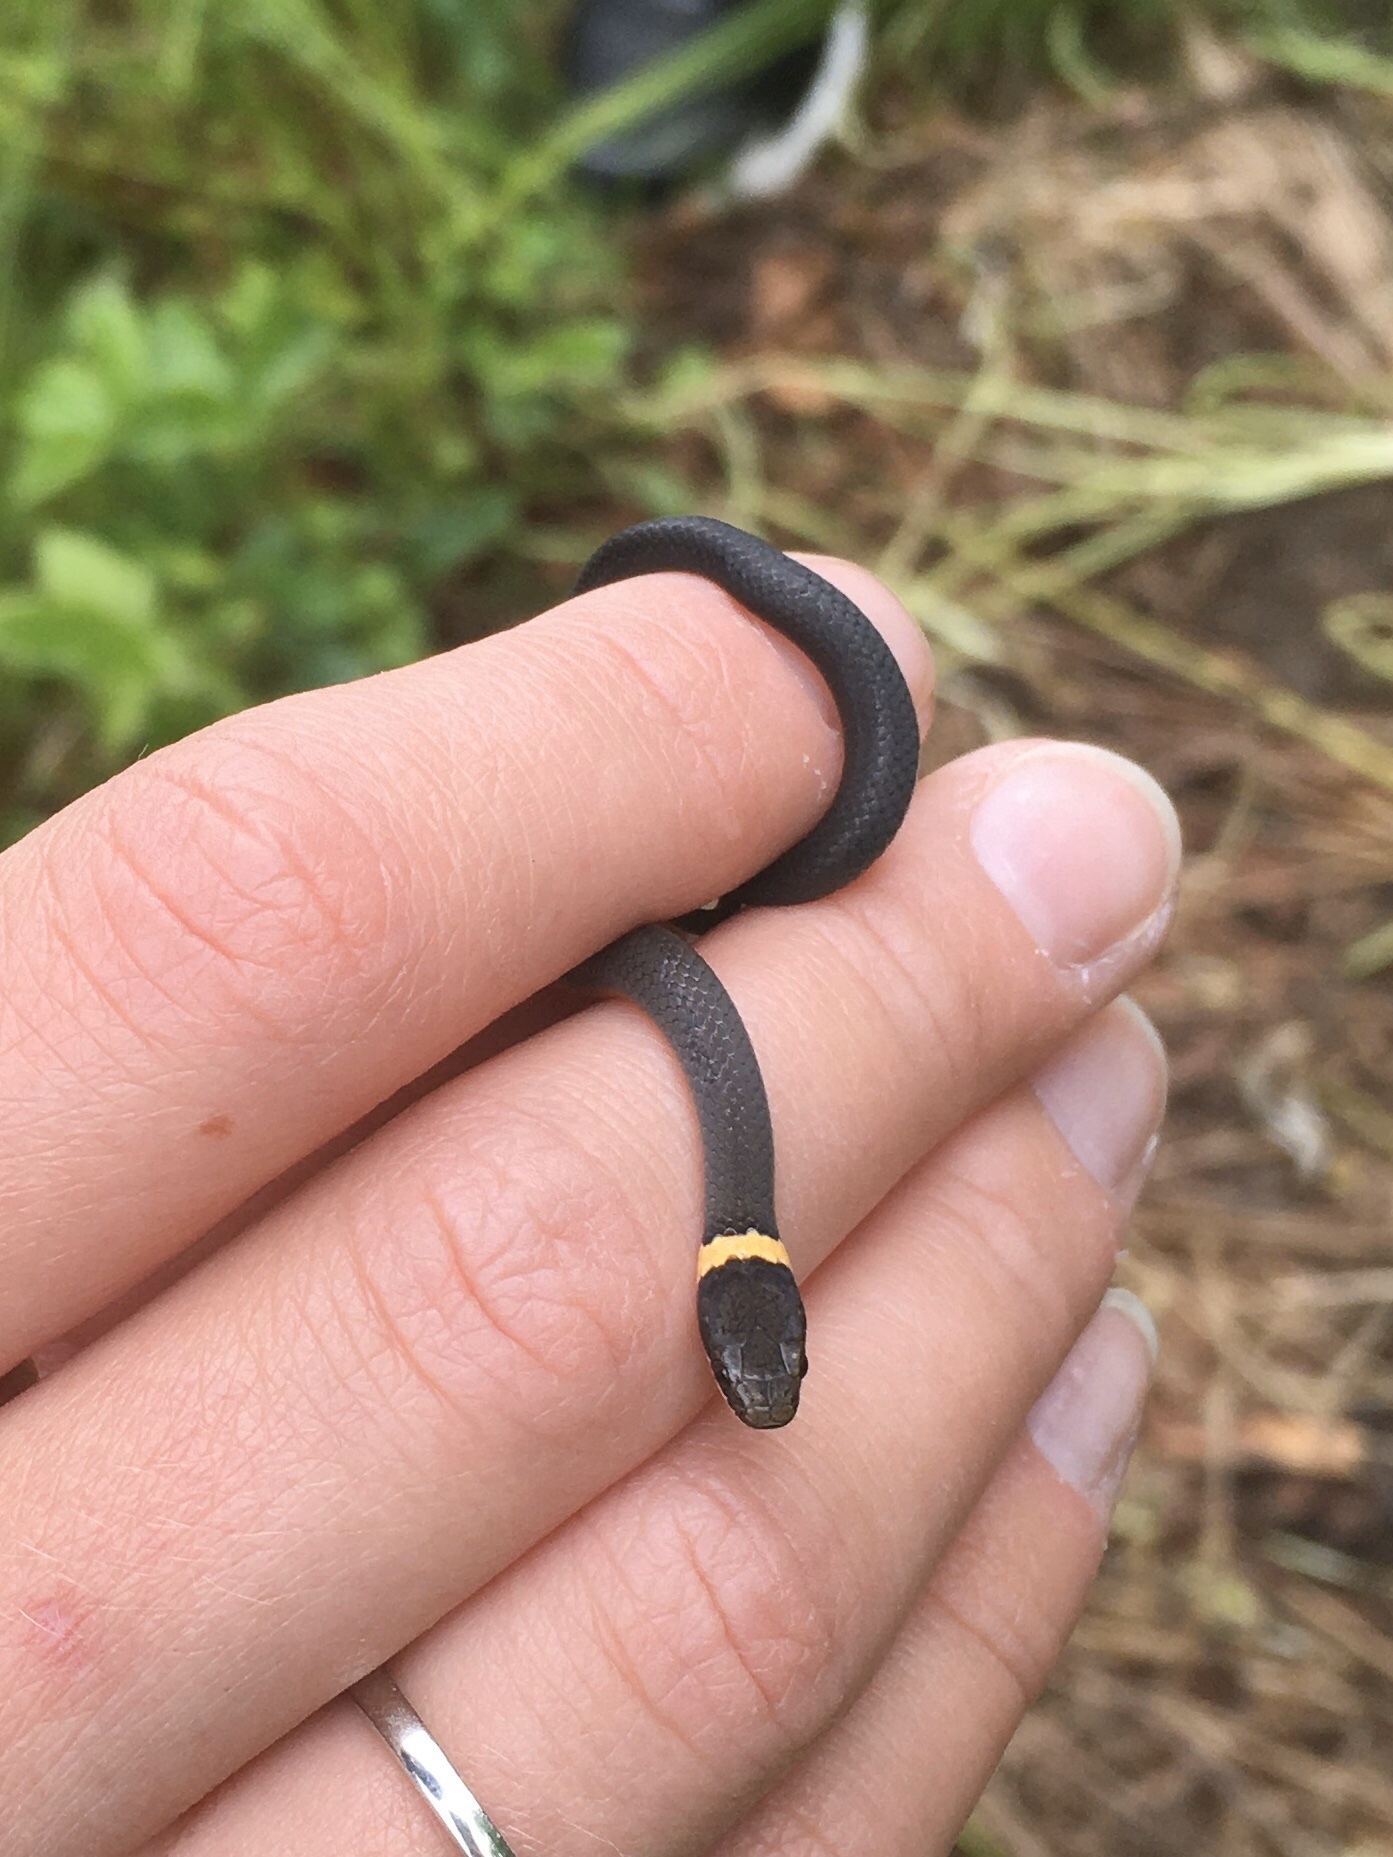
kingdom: Animalia
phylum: Chordata
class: Squamata
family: Colubridae
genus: Diadophis
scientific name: Diadophis punctatus
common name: Ringneck snake
